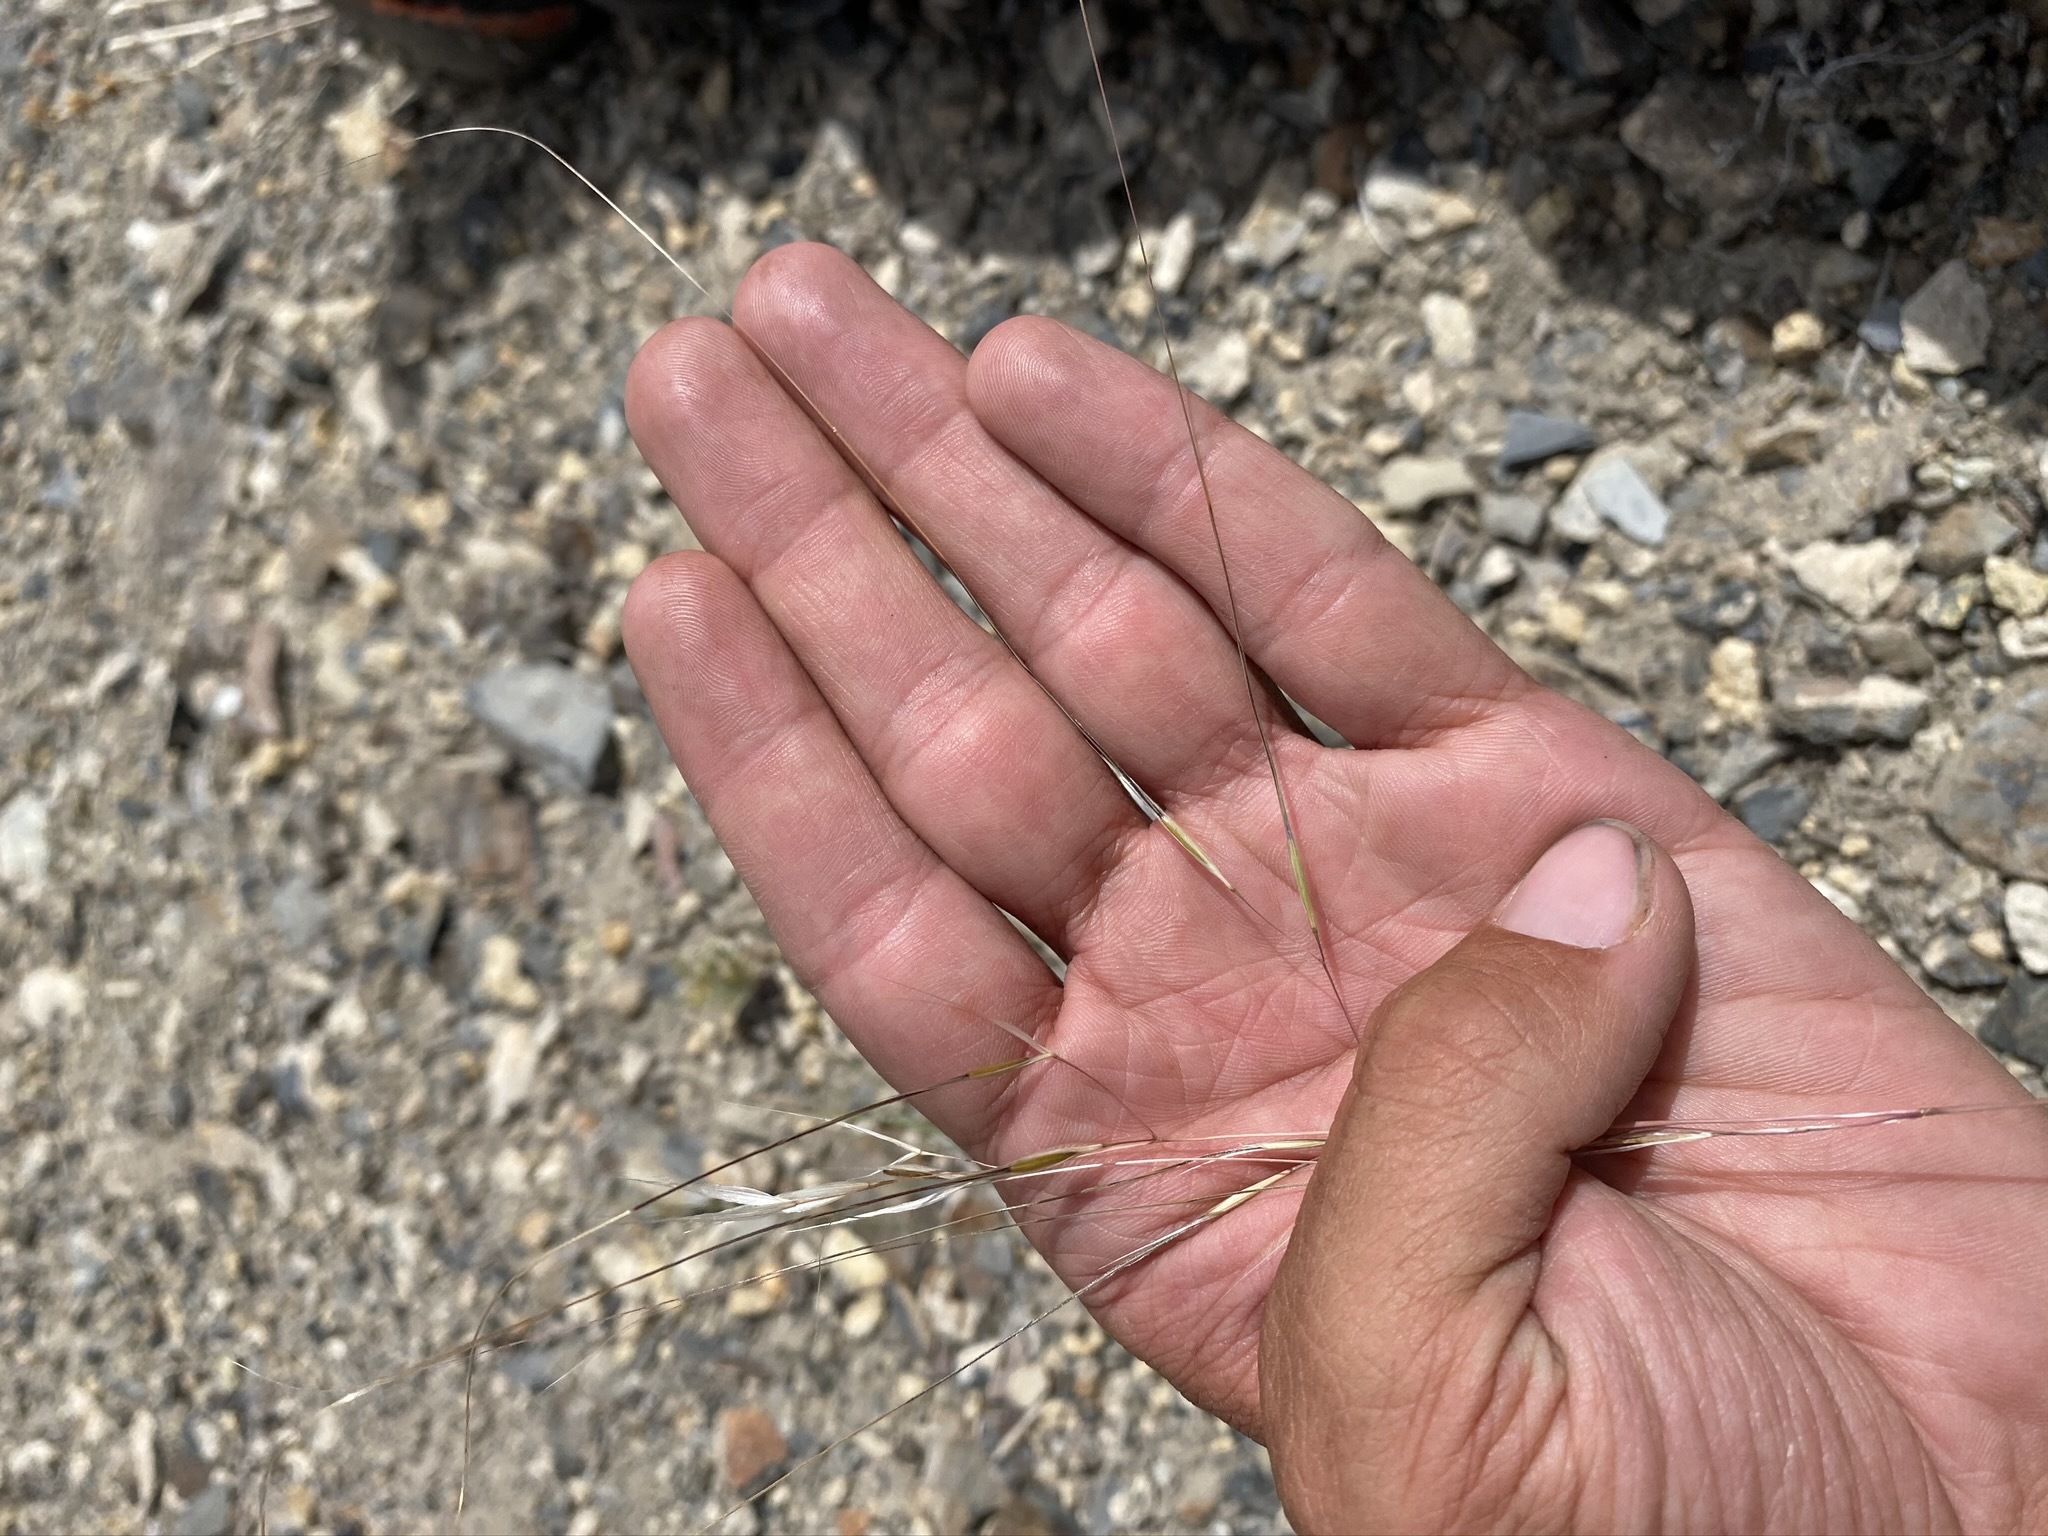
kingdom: Plantae
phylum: Tracheophyta
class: Liliopsida
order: Poales
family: Poaceae
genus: Hesperostipa
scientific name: Hesperostipa comata
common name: Needle-and-thread grass
